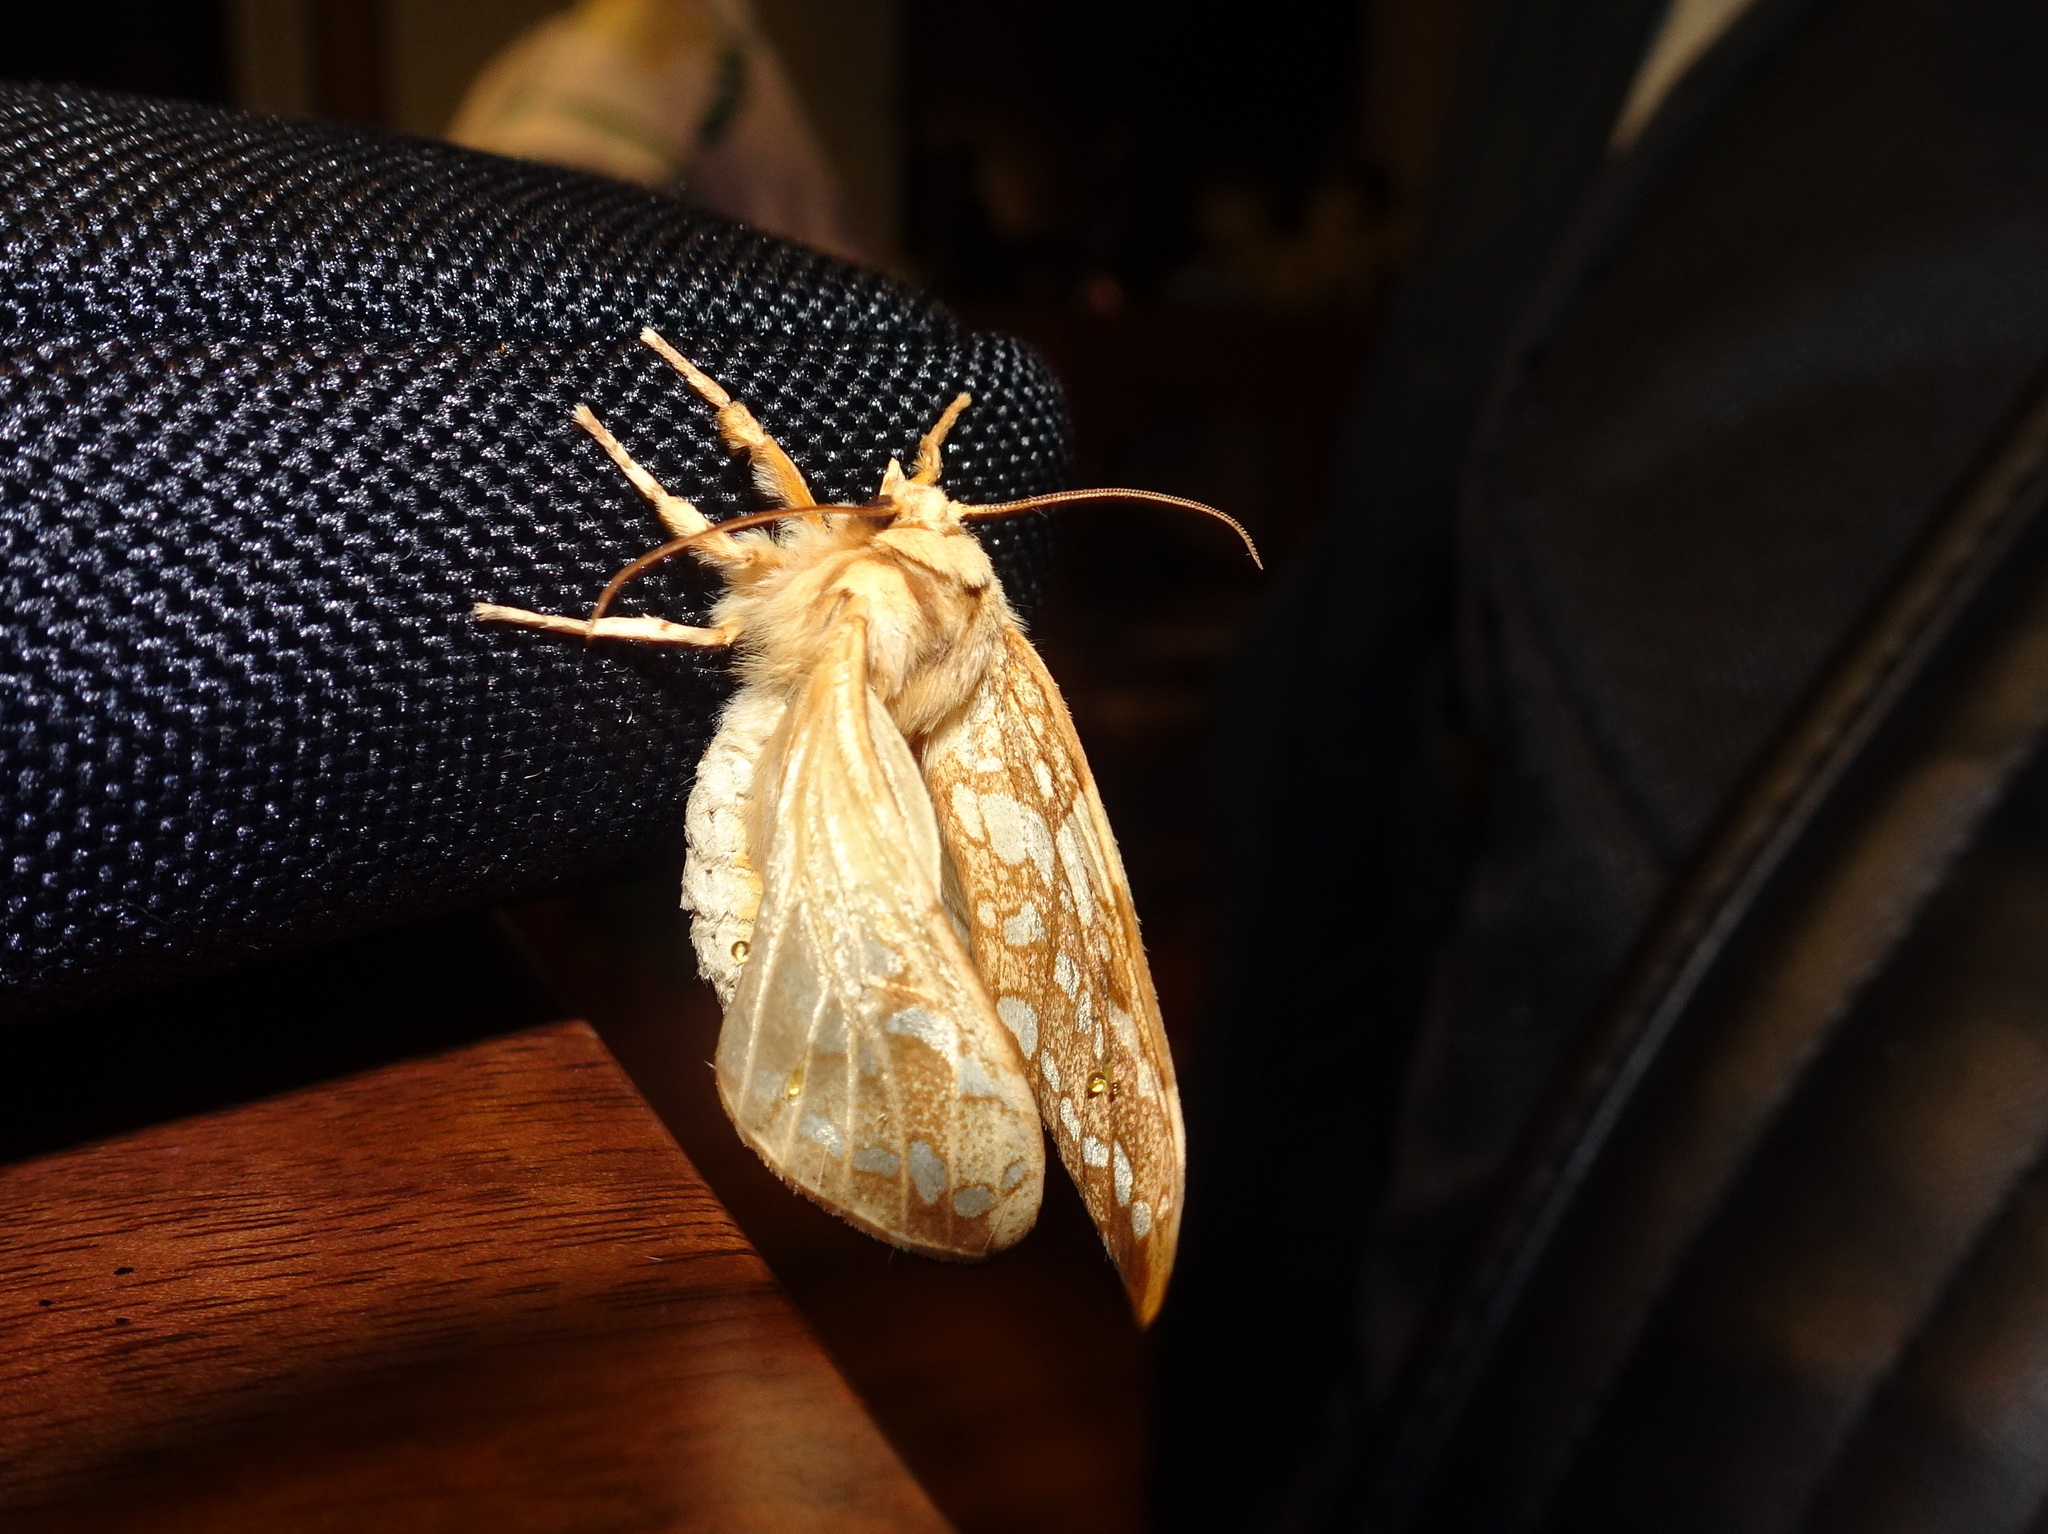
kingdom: Animalia
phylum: Arthropoda
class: Insecta
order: Lepidoptera
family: Erebidae
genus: Lophocampa
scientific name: Lophocampa caryae
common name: Hickory tussock moth
